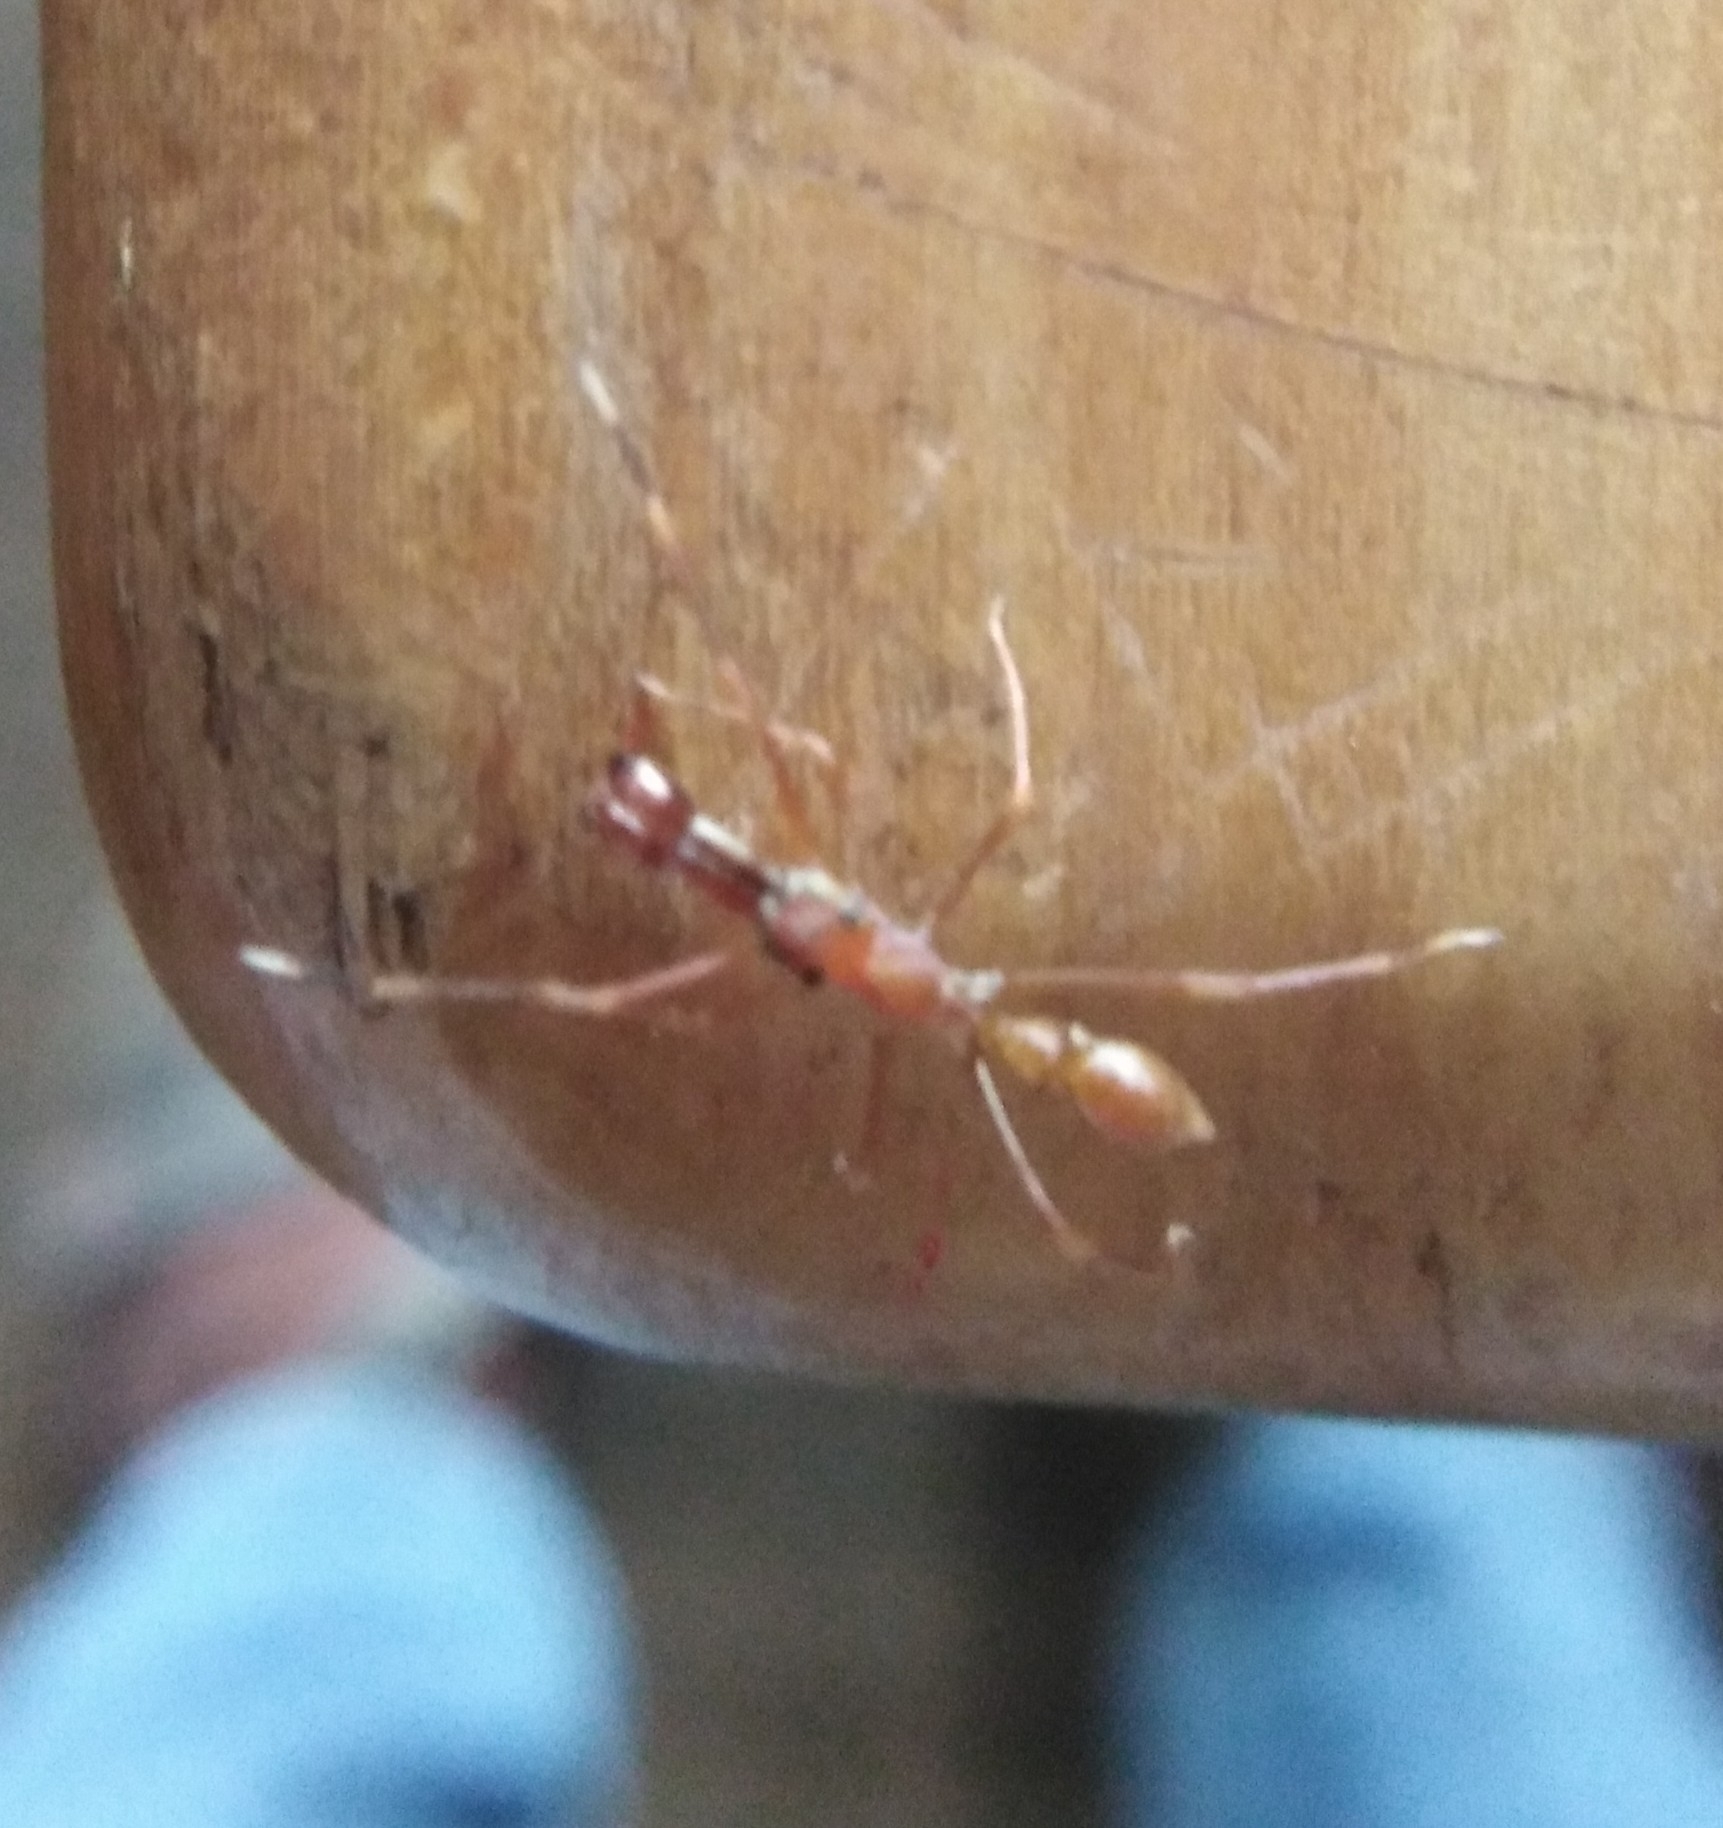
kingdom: Animalia
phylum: Arthropoda
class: Arachnida
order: Araneae
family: Salticidae
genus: Myrmaplata
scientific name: Myrmaplata plataleoides
